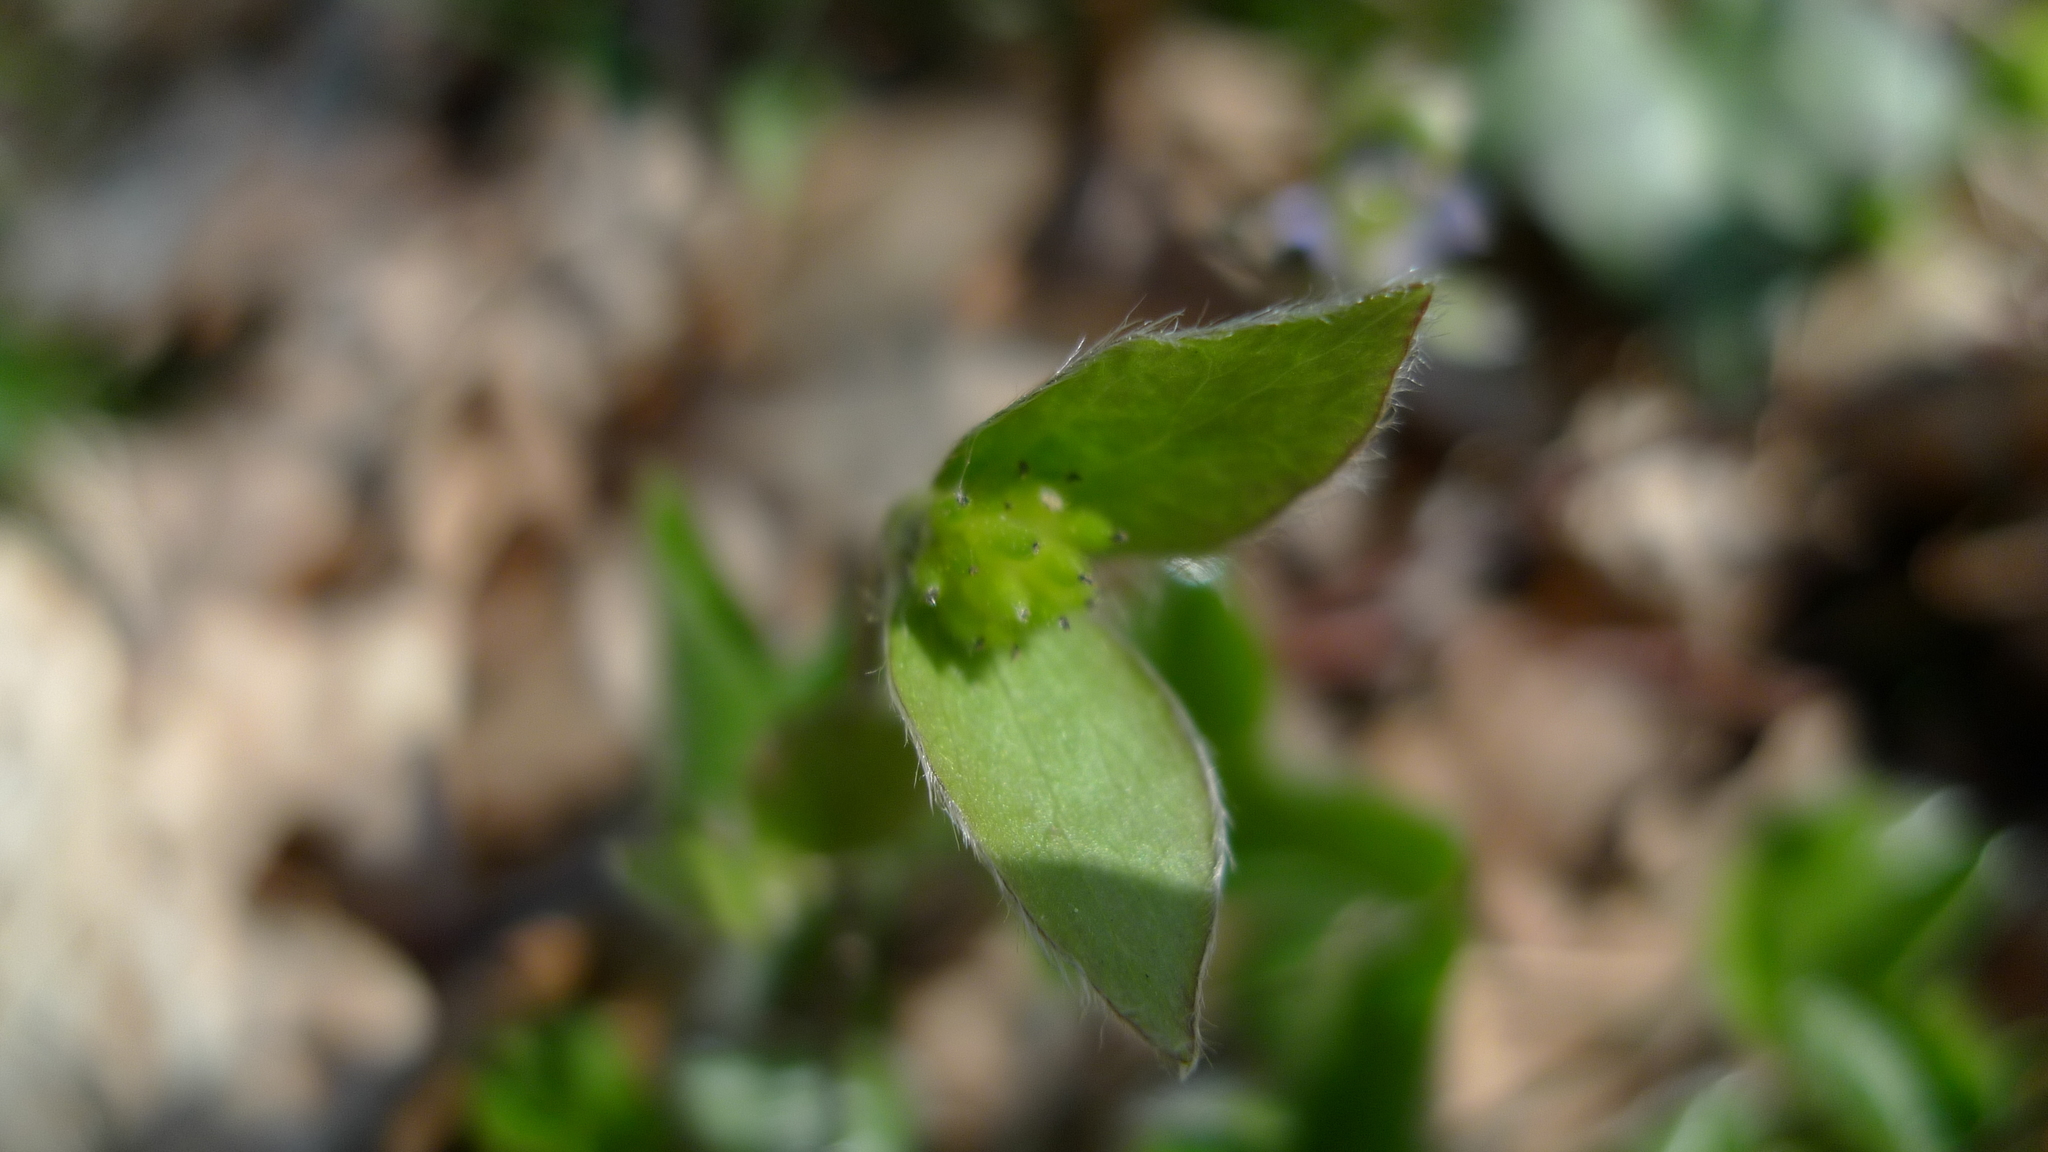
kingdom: Plantae
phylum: Tracheophyta
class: Magnoliopsida
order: Ranunculales
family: Ranunculaceae
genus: Hepatica
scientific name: Hepatica nobilis
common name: Liverleaf
